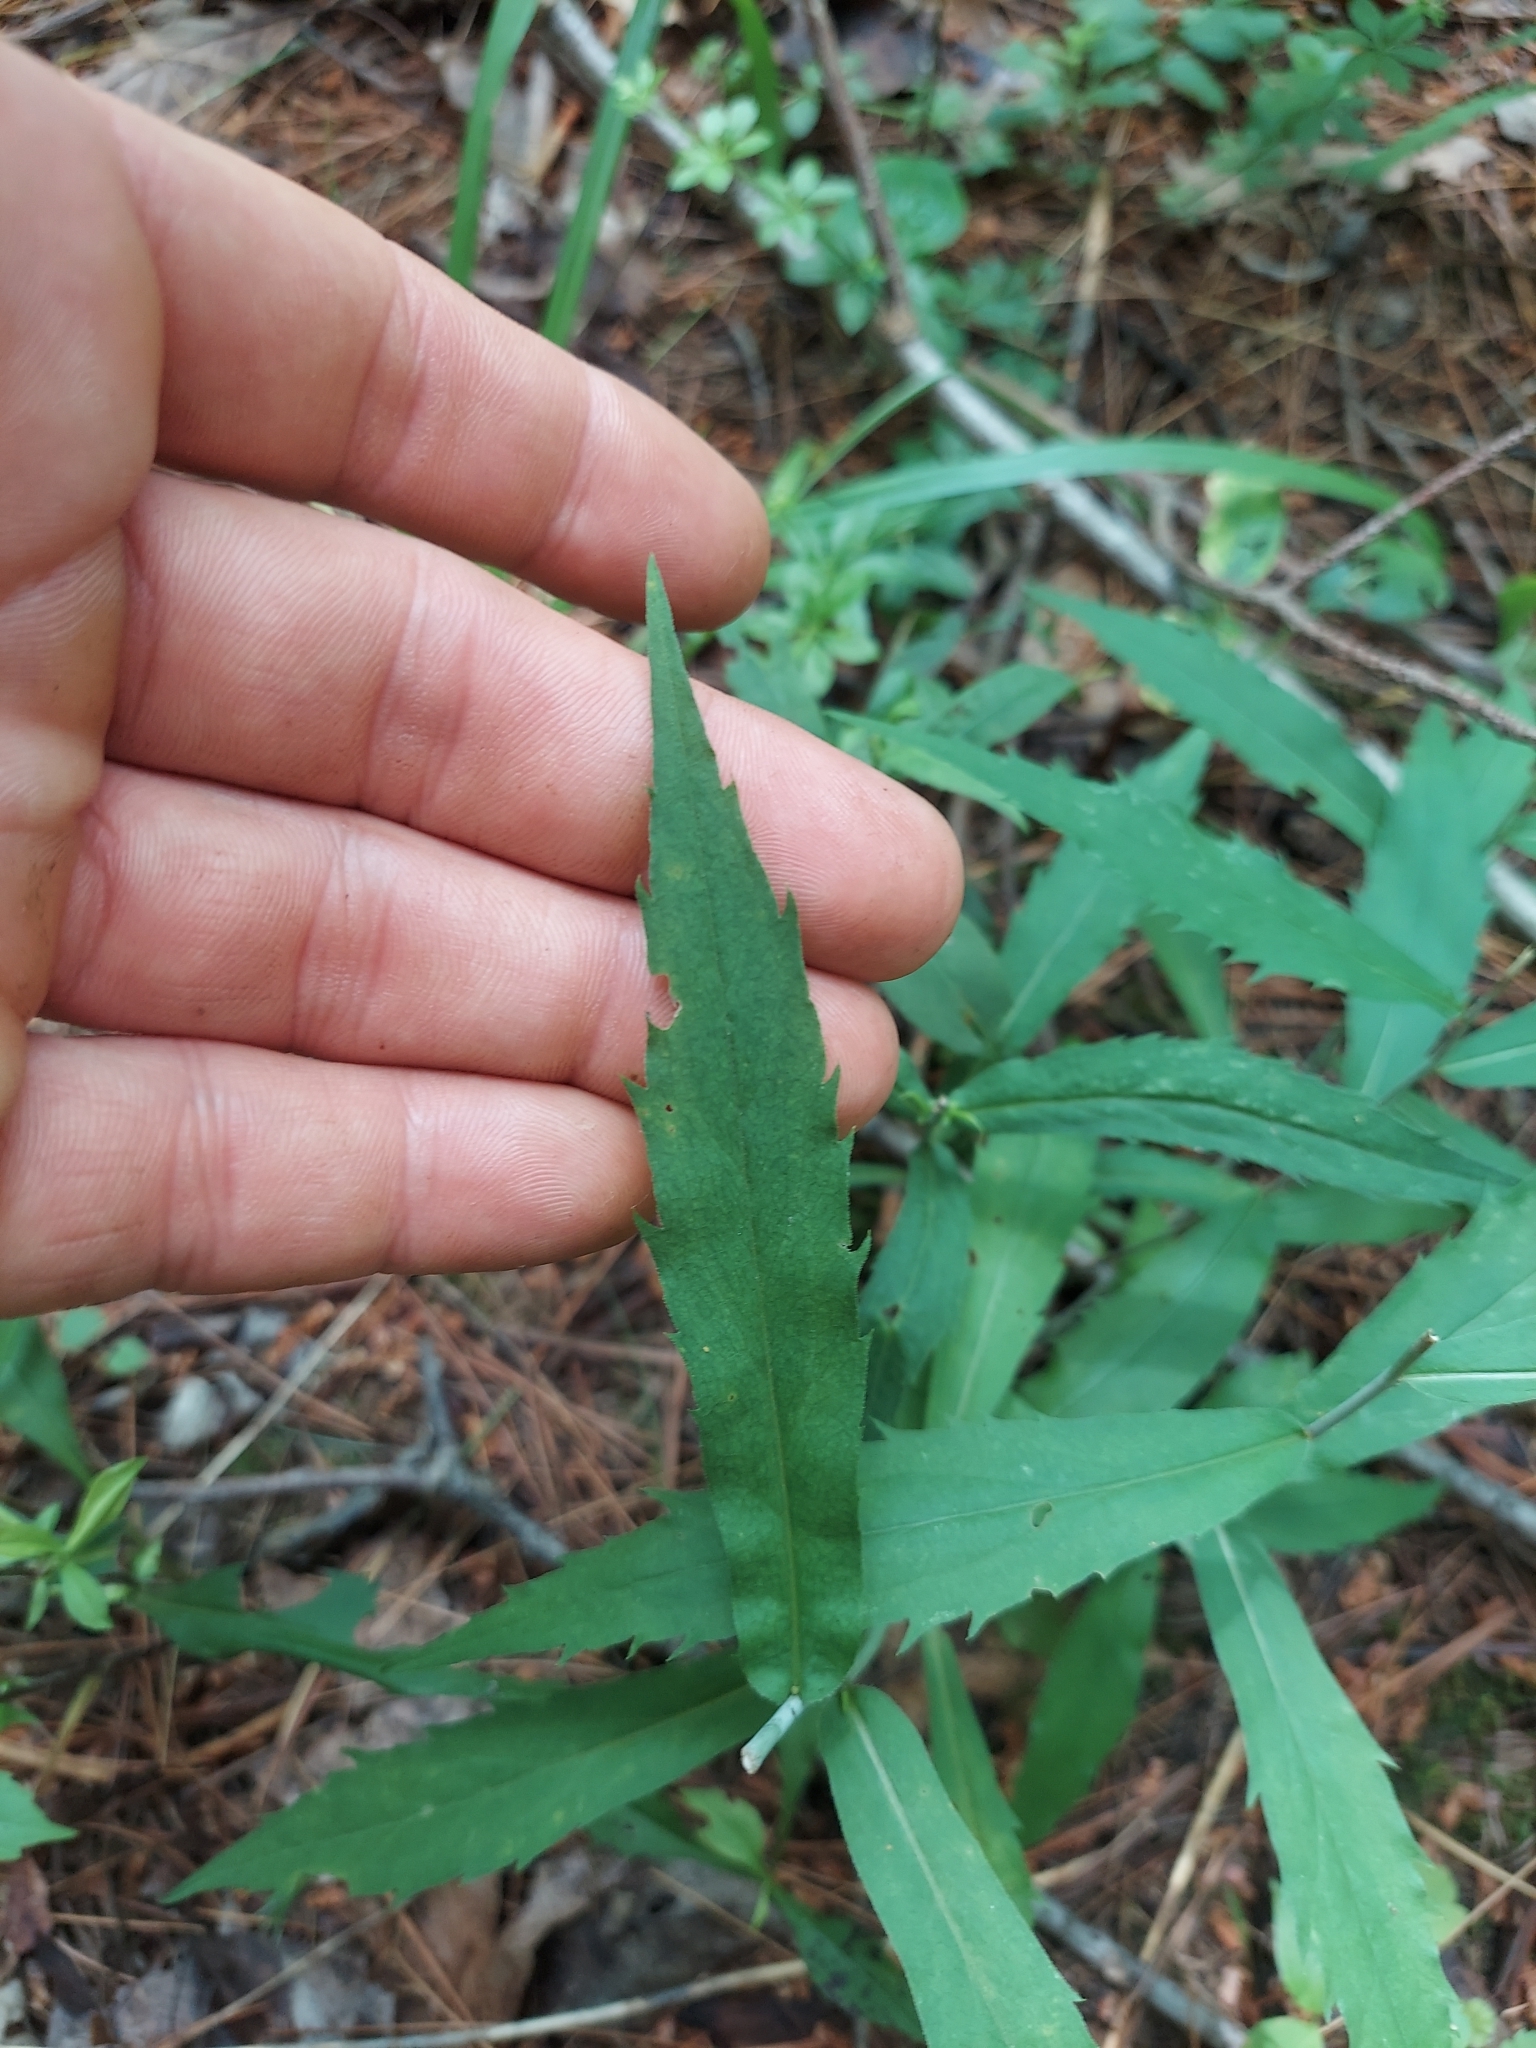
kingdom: Plantae
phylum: Tracheophyta
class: Magnoliopsida
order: Asterales
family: Asteraceae
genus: Solidago
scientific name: Solidago caesia
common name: Woodland goldenrod
